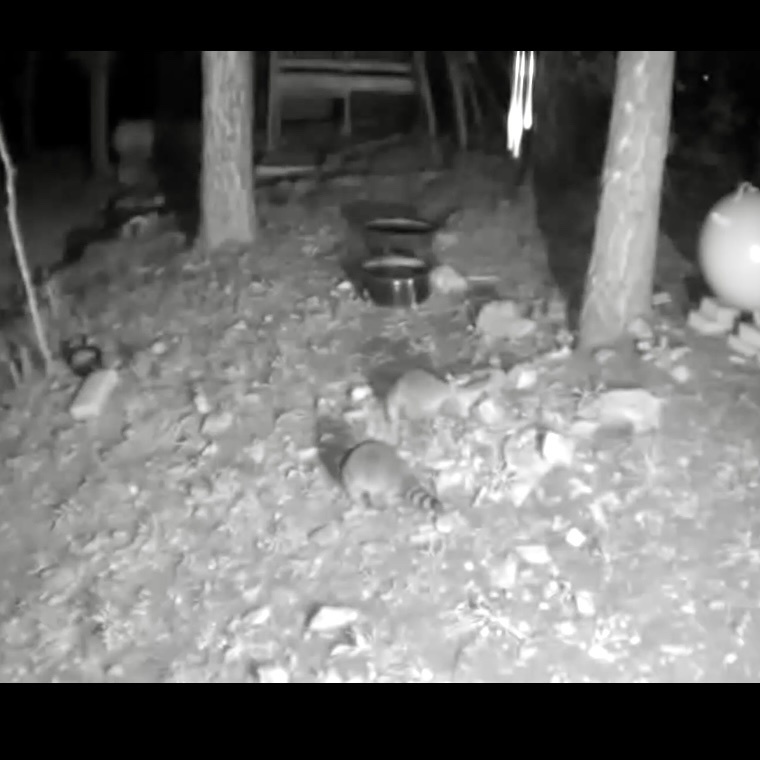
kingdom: Animalia
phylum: Chordata
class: Mammalia
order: Carnivora
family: Procyonidae
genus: Procyon
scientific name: Procyon lotor
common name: Raccoon
